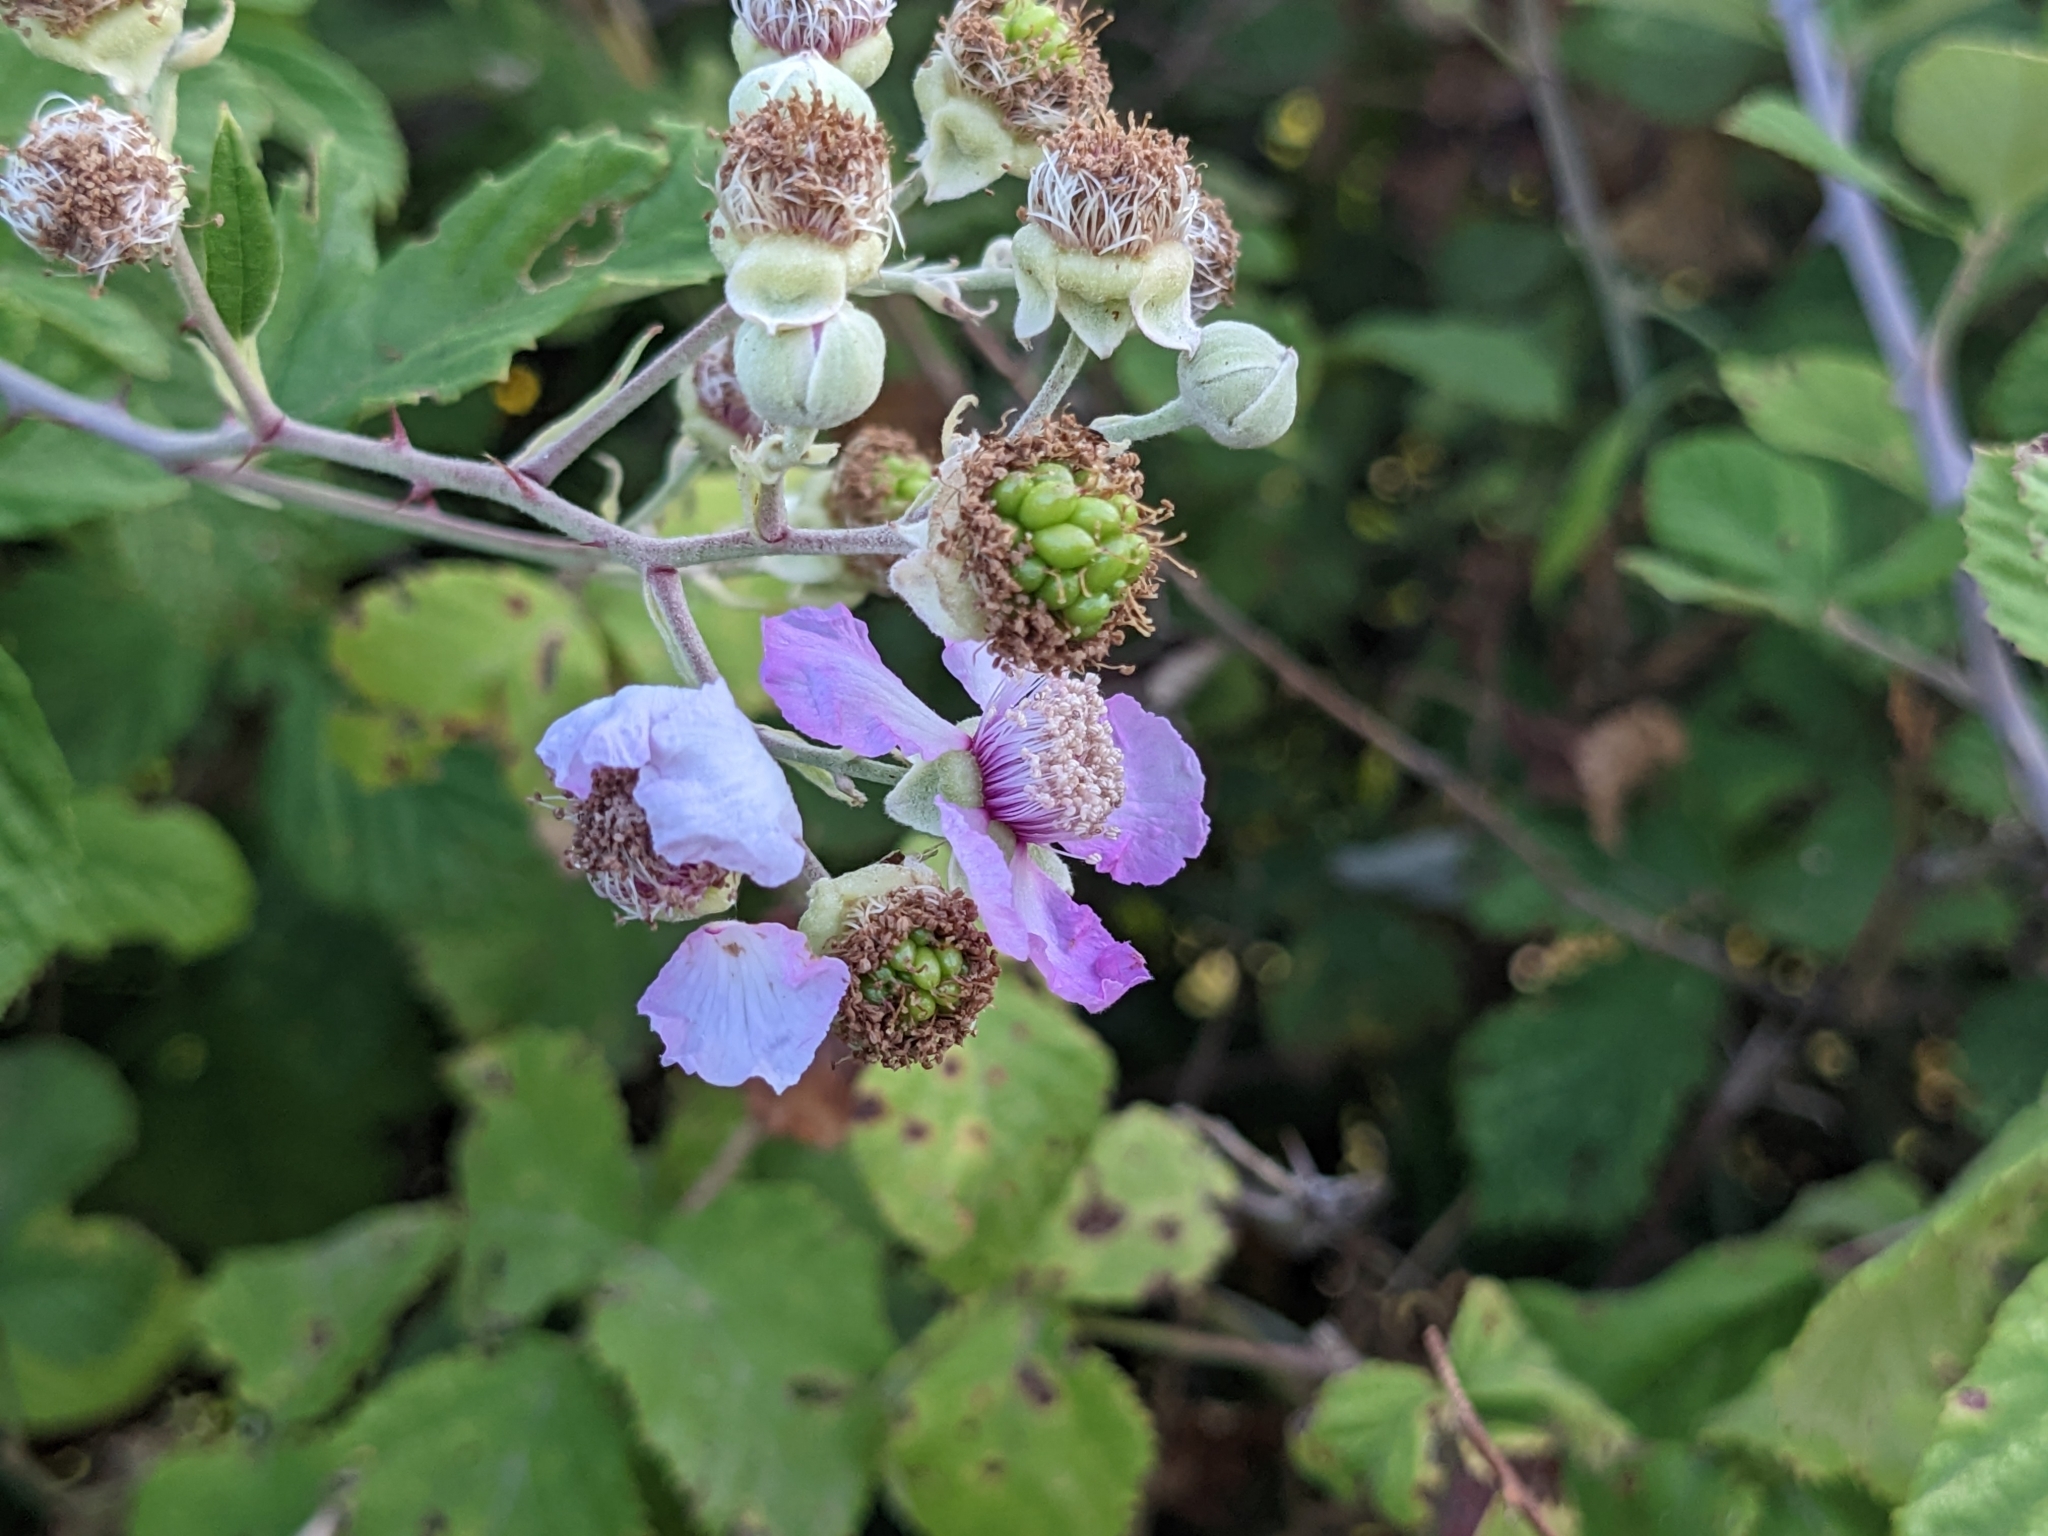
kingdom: Plantae
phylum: Tracheophyta
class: Magnoliopsida
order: Rosales
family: Rosaceae
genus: Rubus
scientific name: Rubus sanctus
